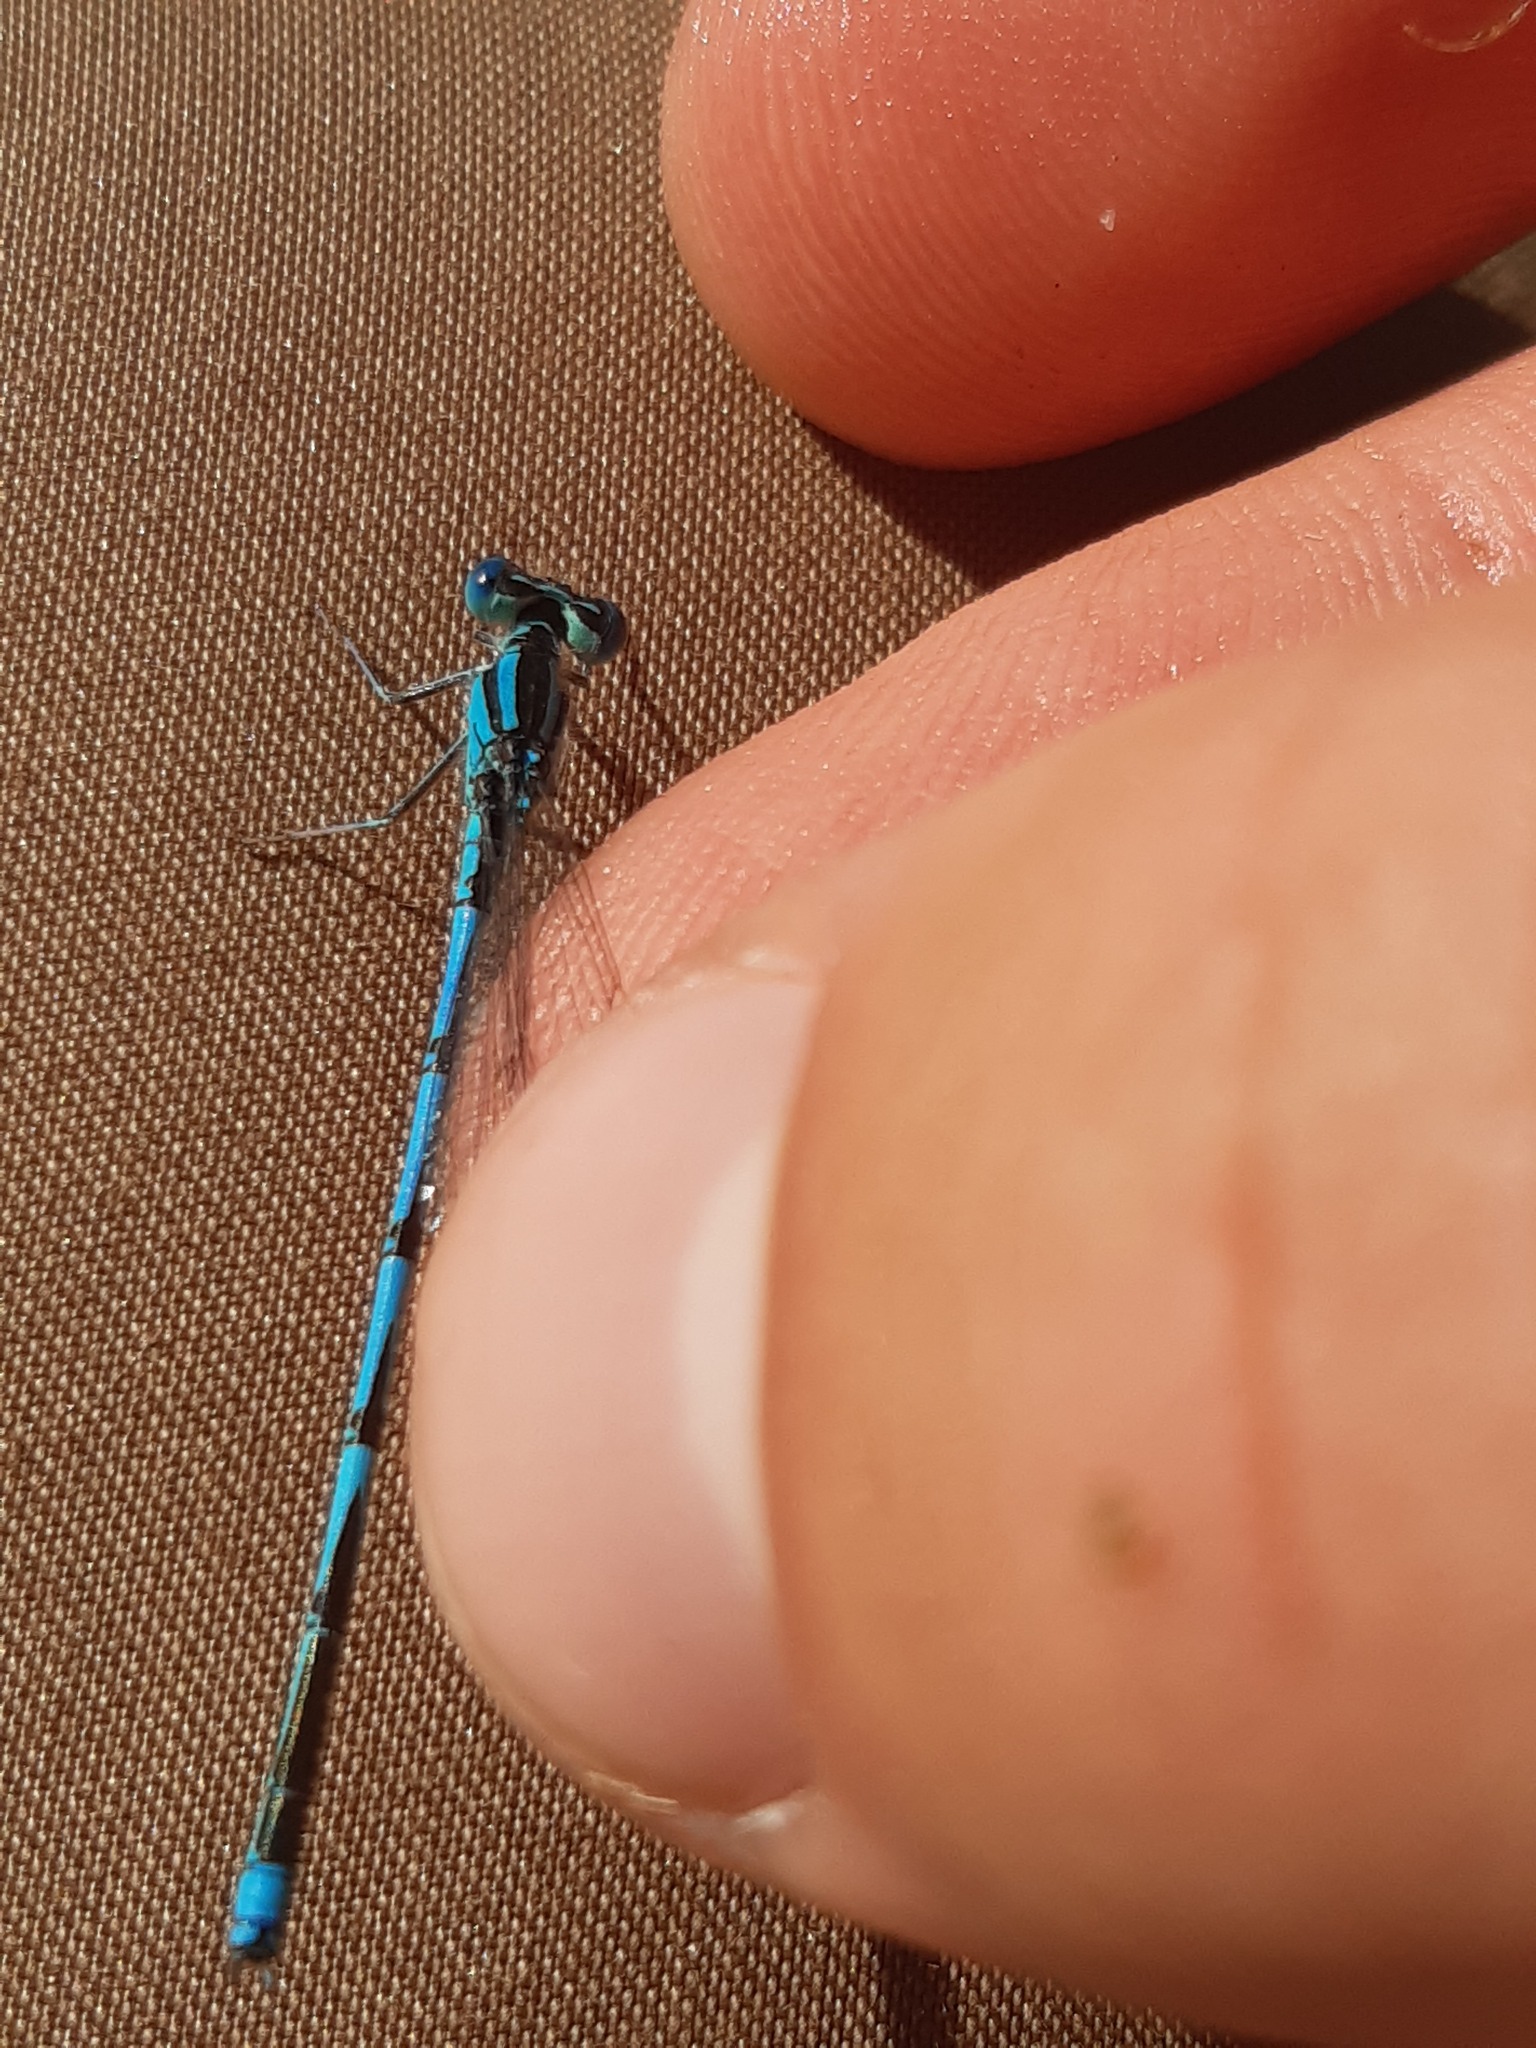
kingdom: Animalia
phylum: Arthropoda
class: Insecta
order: Odonata
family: Coenagrionidae
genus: Erythromma
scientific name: Erythromma lindenii
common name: Blue-eye
